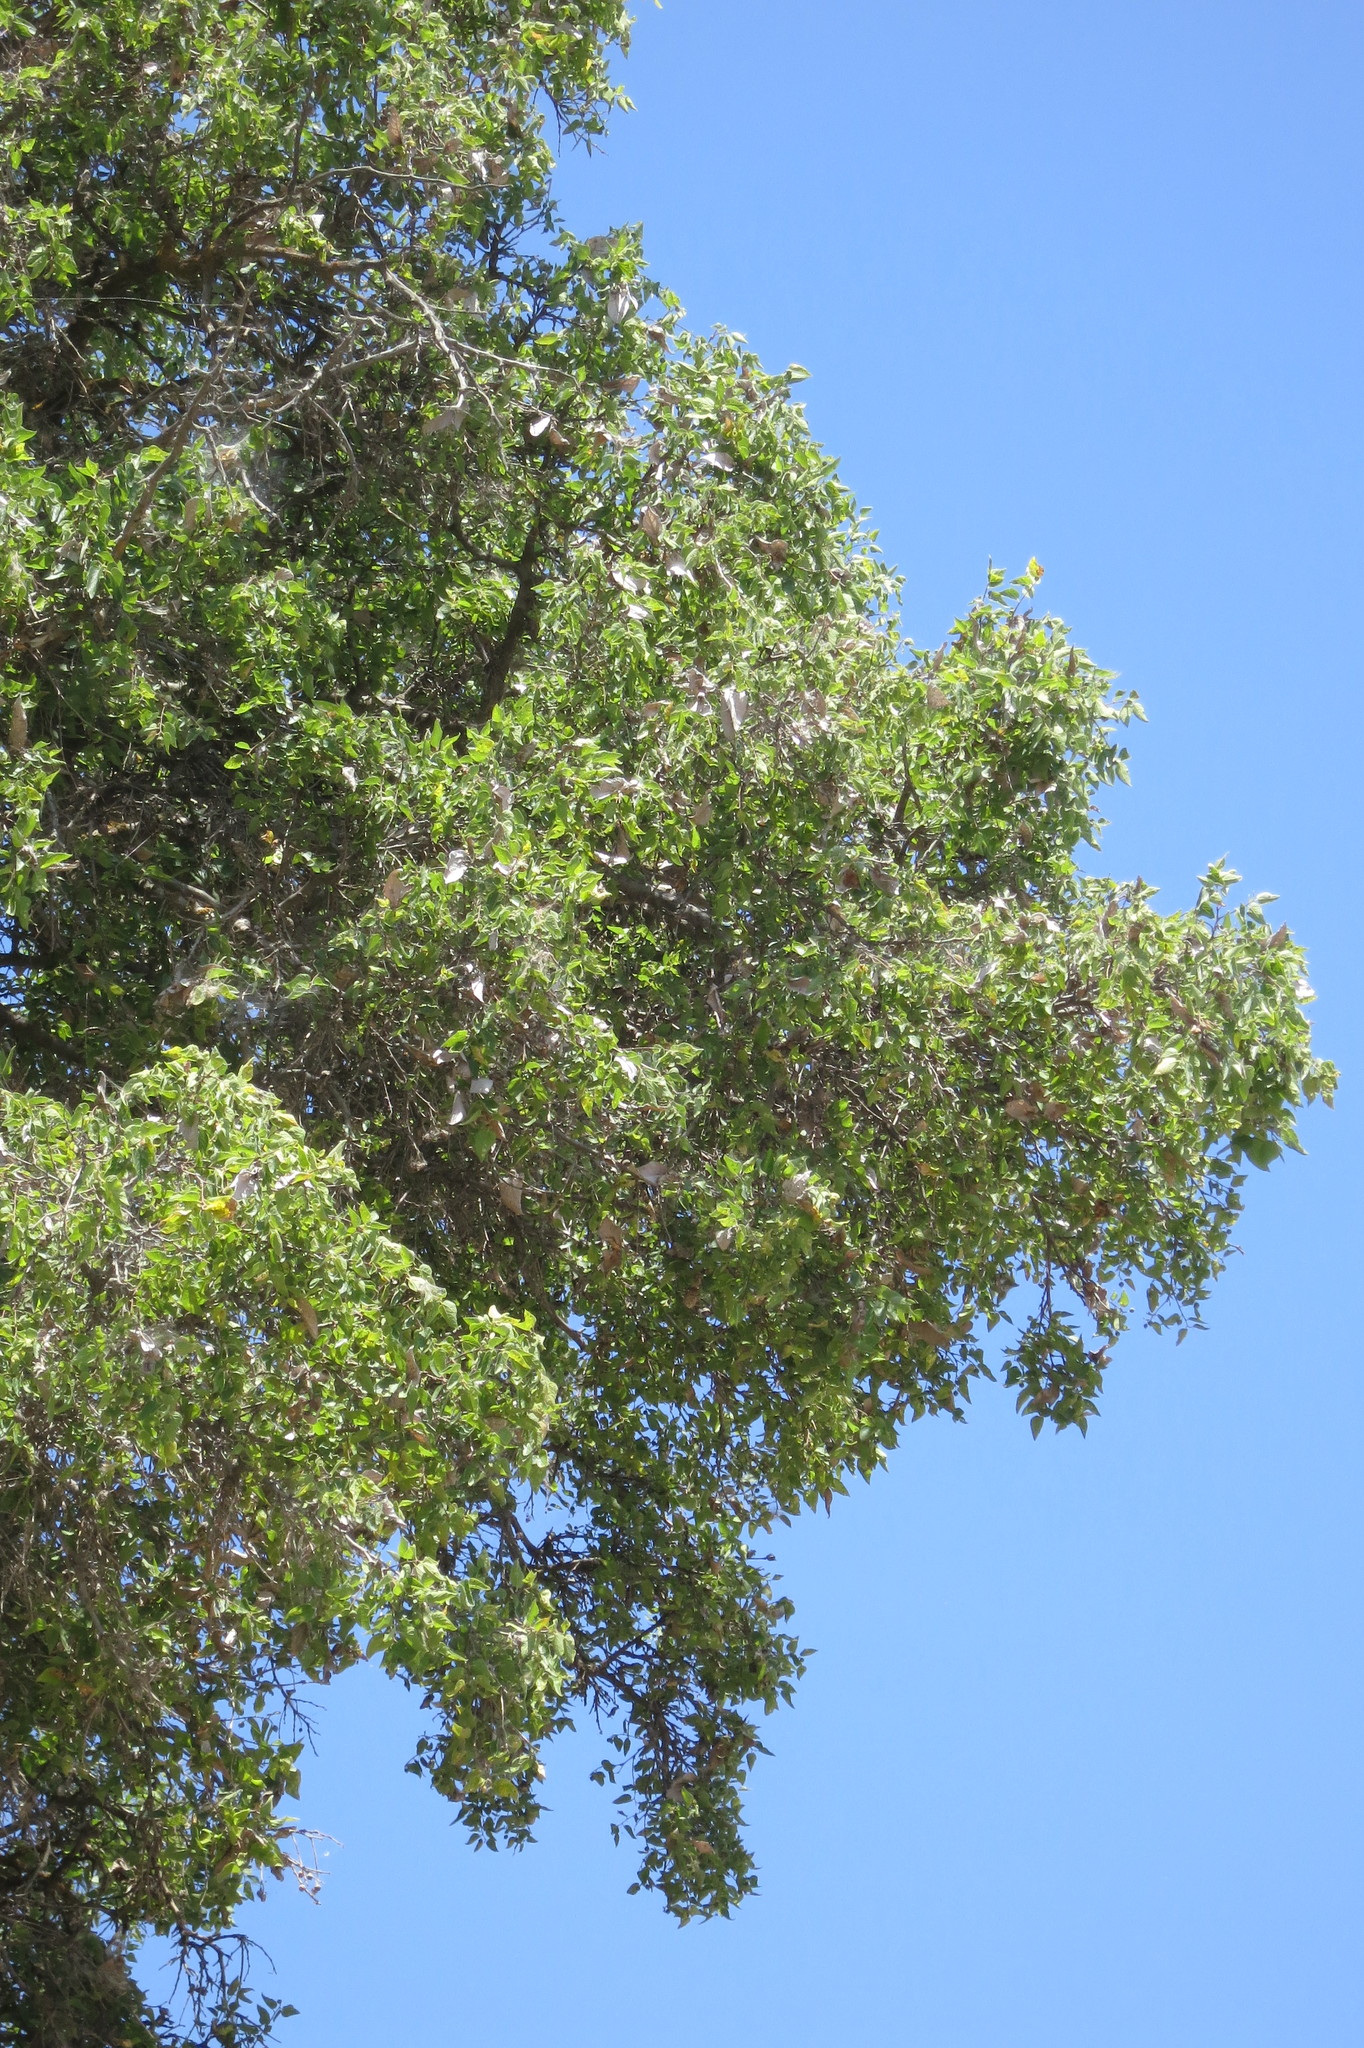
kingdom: Plantae
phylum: Tracheophyta
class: Magnoliopsida
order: Rosales
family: Cannabaceae
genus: Celtis
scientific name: Celtis reticulata
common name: Netleaf hackberry
